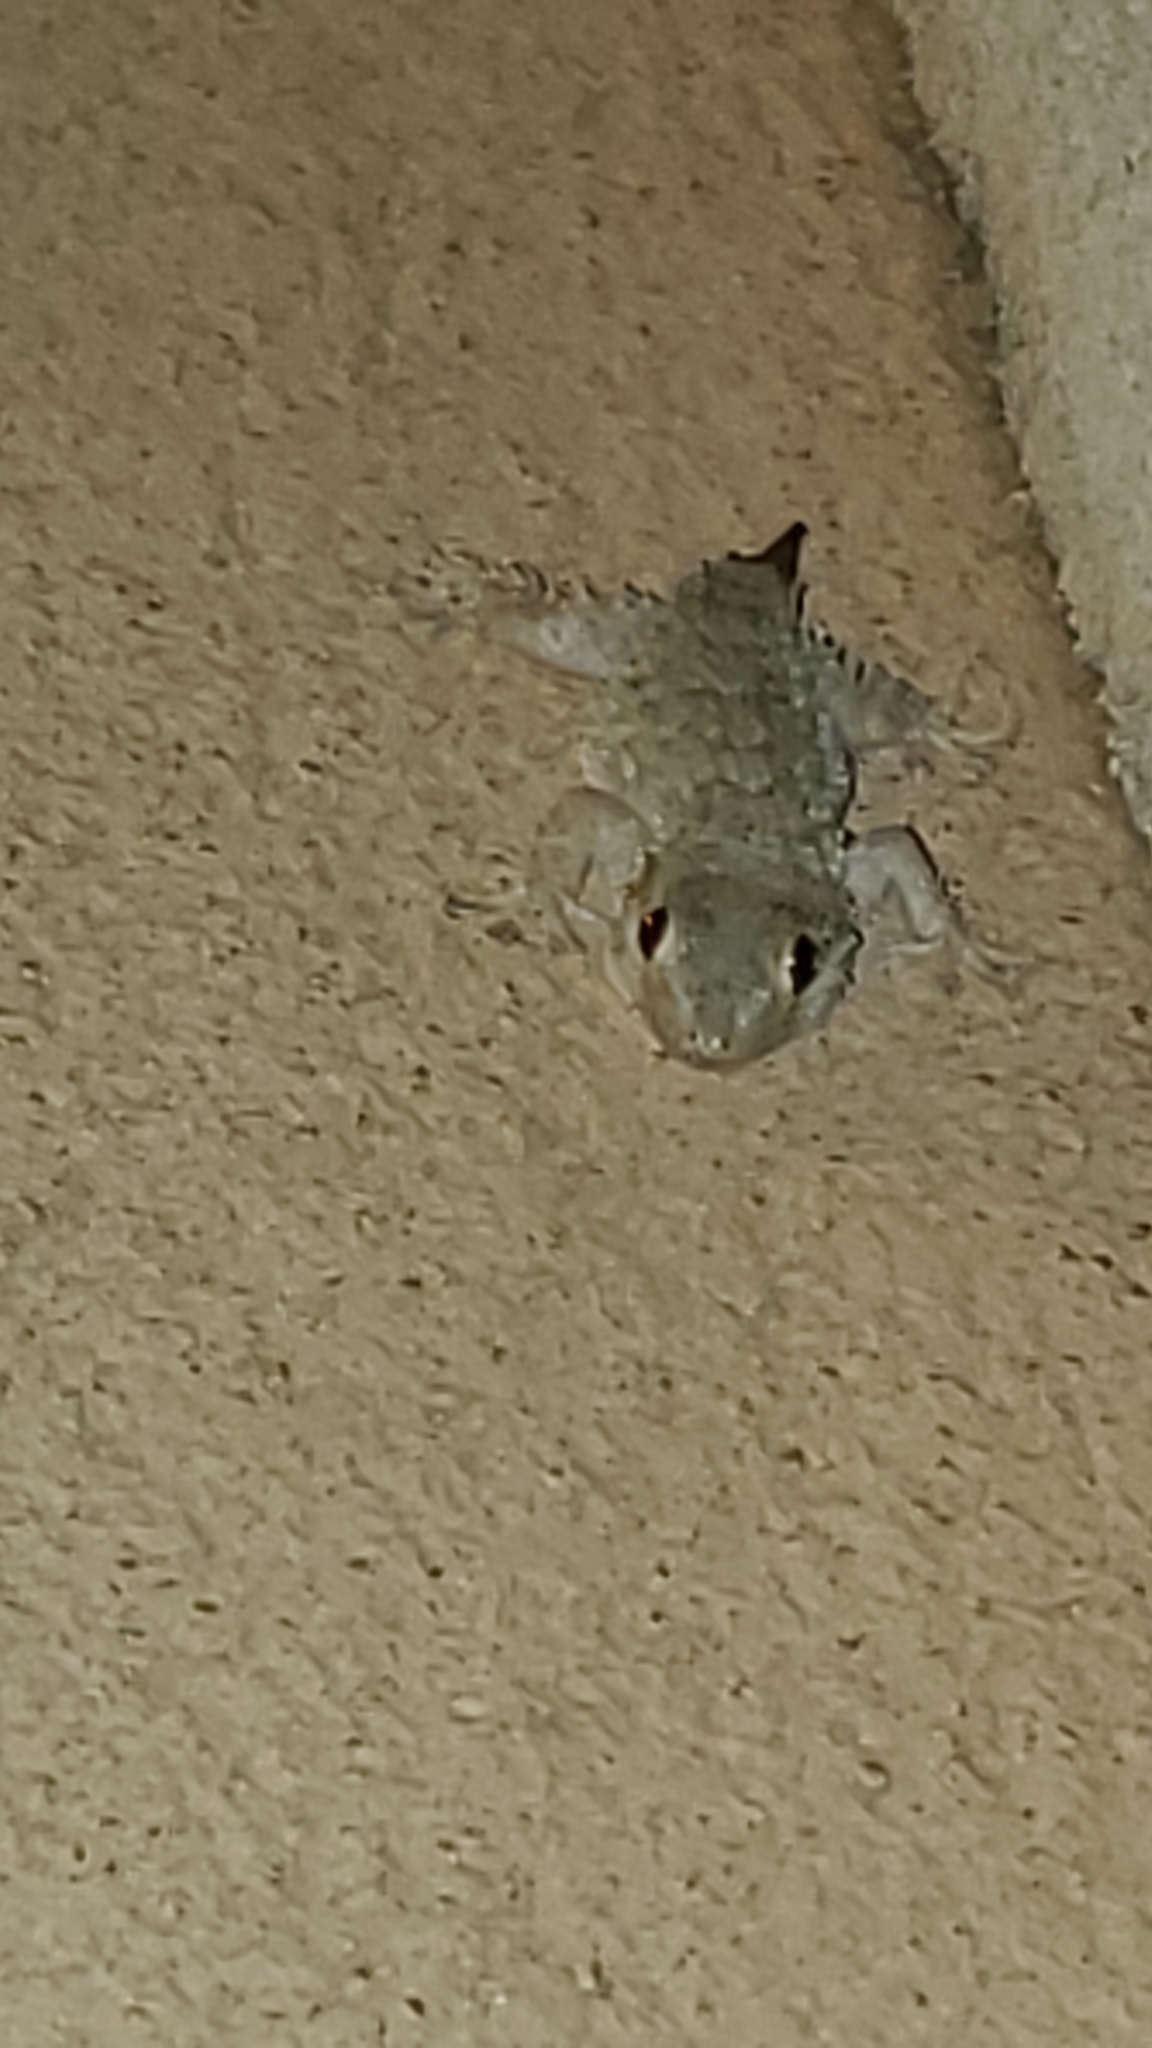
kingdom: Animalia
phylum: Chordata
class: Squamata
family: Phyllodactylidae
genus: Tarentola
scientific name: Tarentola mauritanica
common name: Moorish gecko
